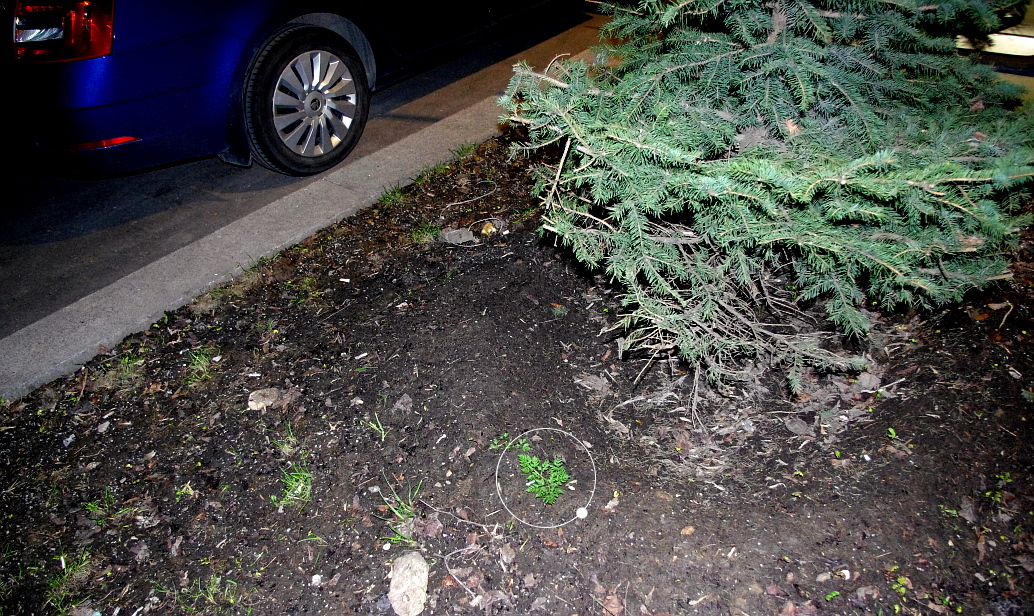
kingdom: Plantae
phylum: Tracheophyta
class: Magnoliopsida
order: Apiales
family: Apiaceae
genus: Anthriscus
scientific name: Anthriscus sylvestris
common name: Cow parsley
